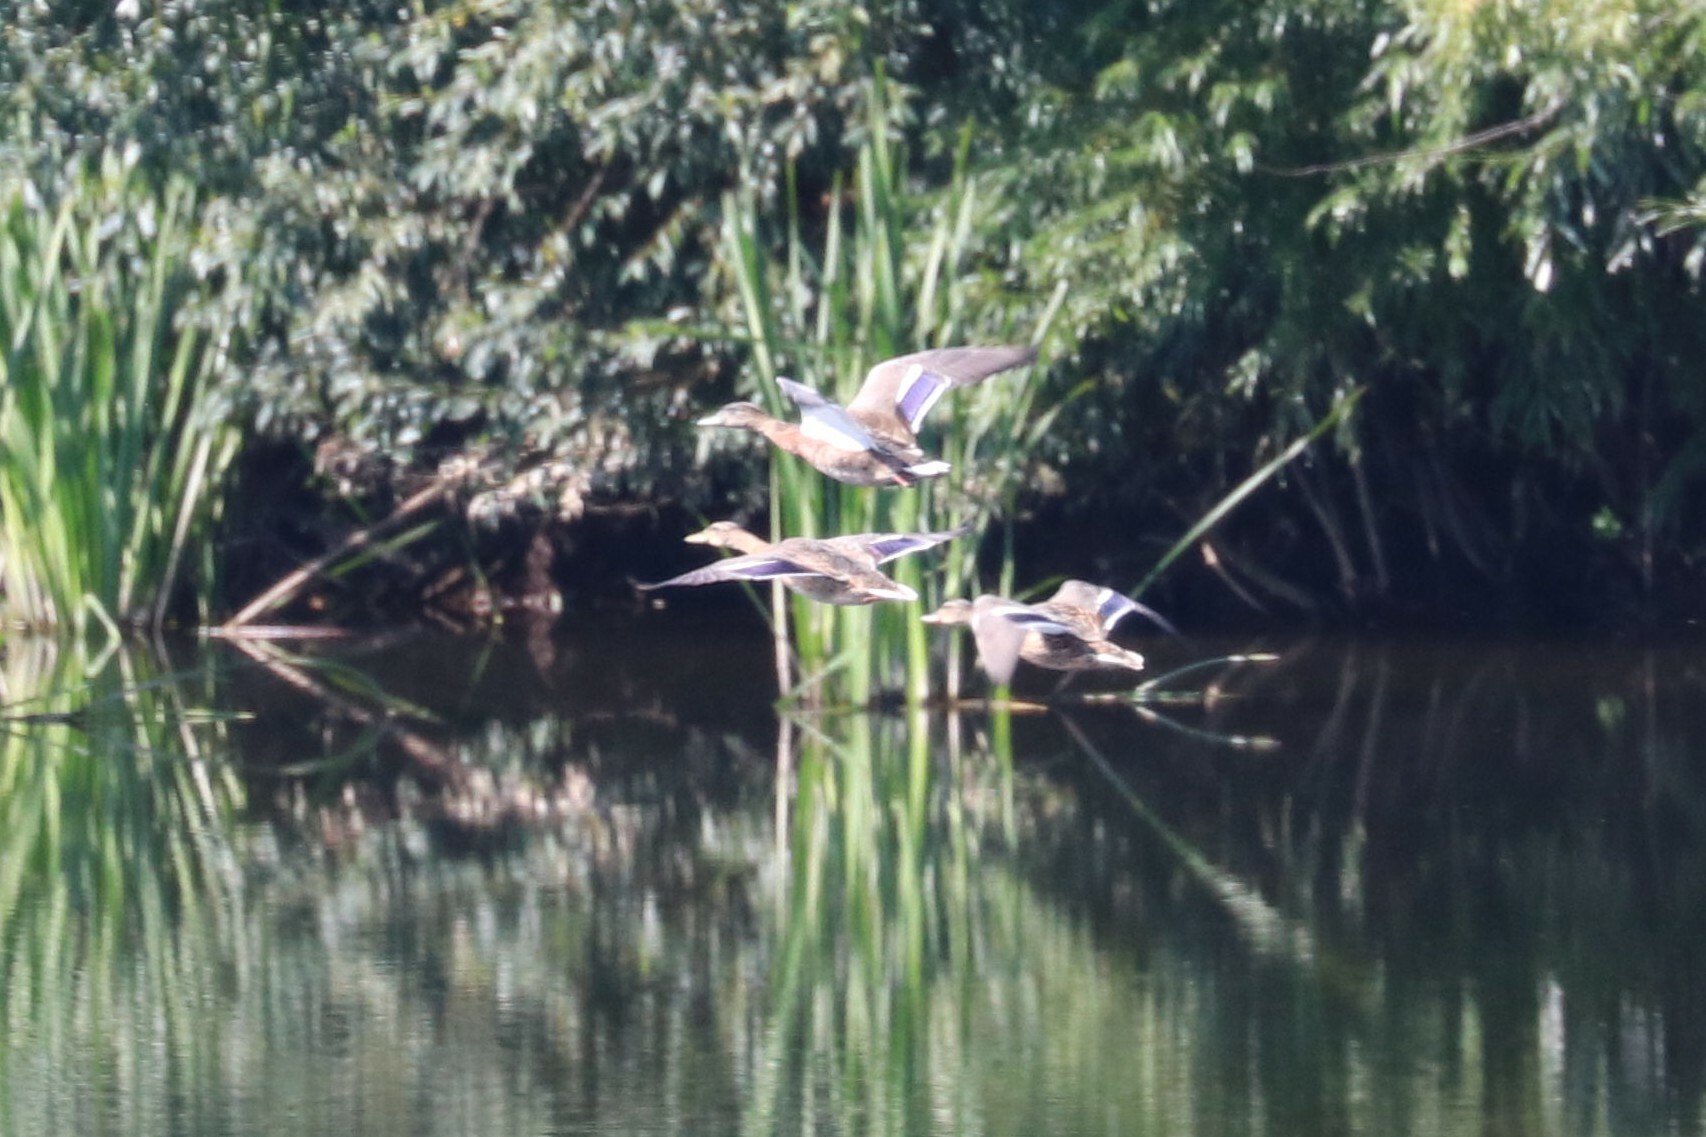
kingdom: Animalia
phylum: Chordata
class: Aves
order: Anseriformes
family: Anatidae
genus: Anas
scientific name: Anas platyrhynchos
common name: Mallard
